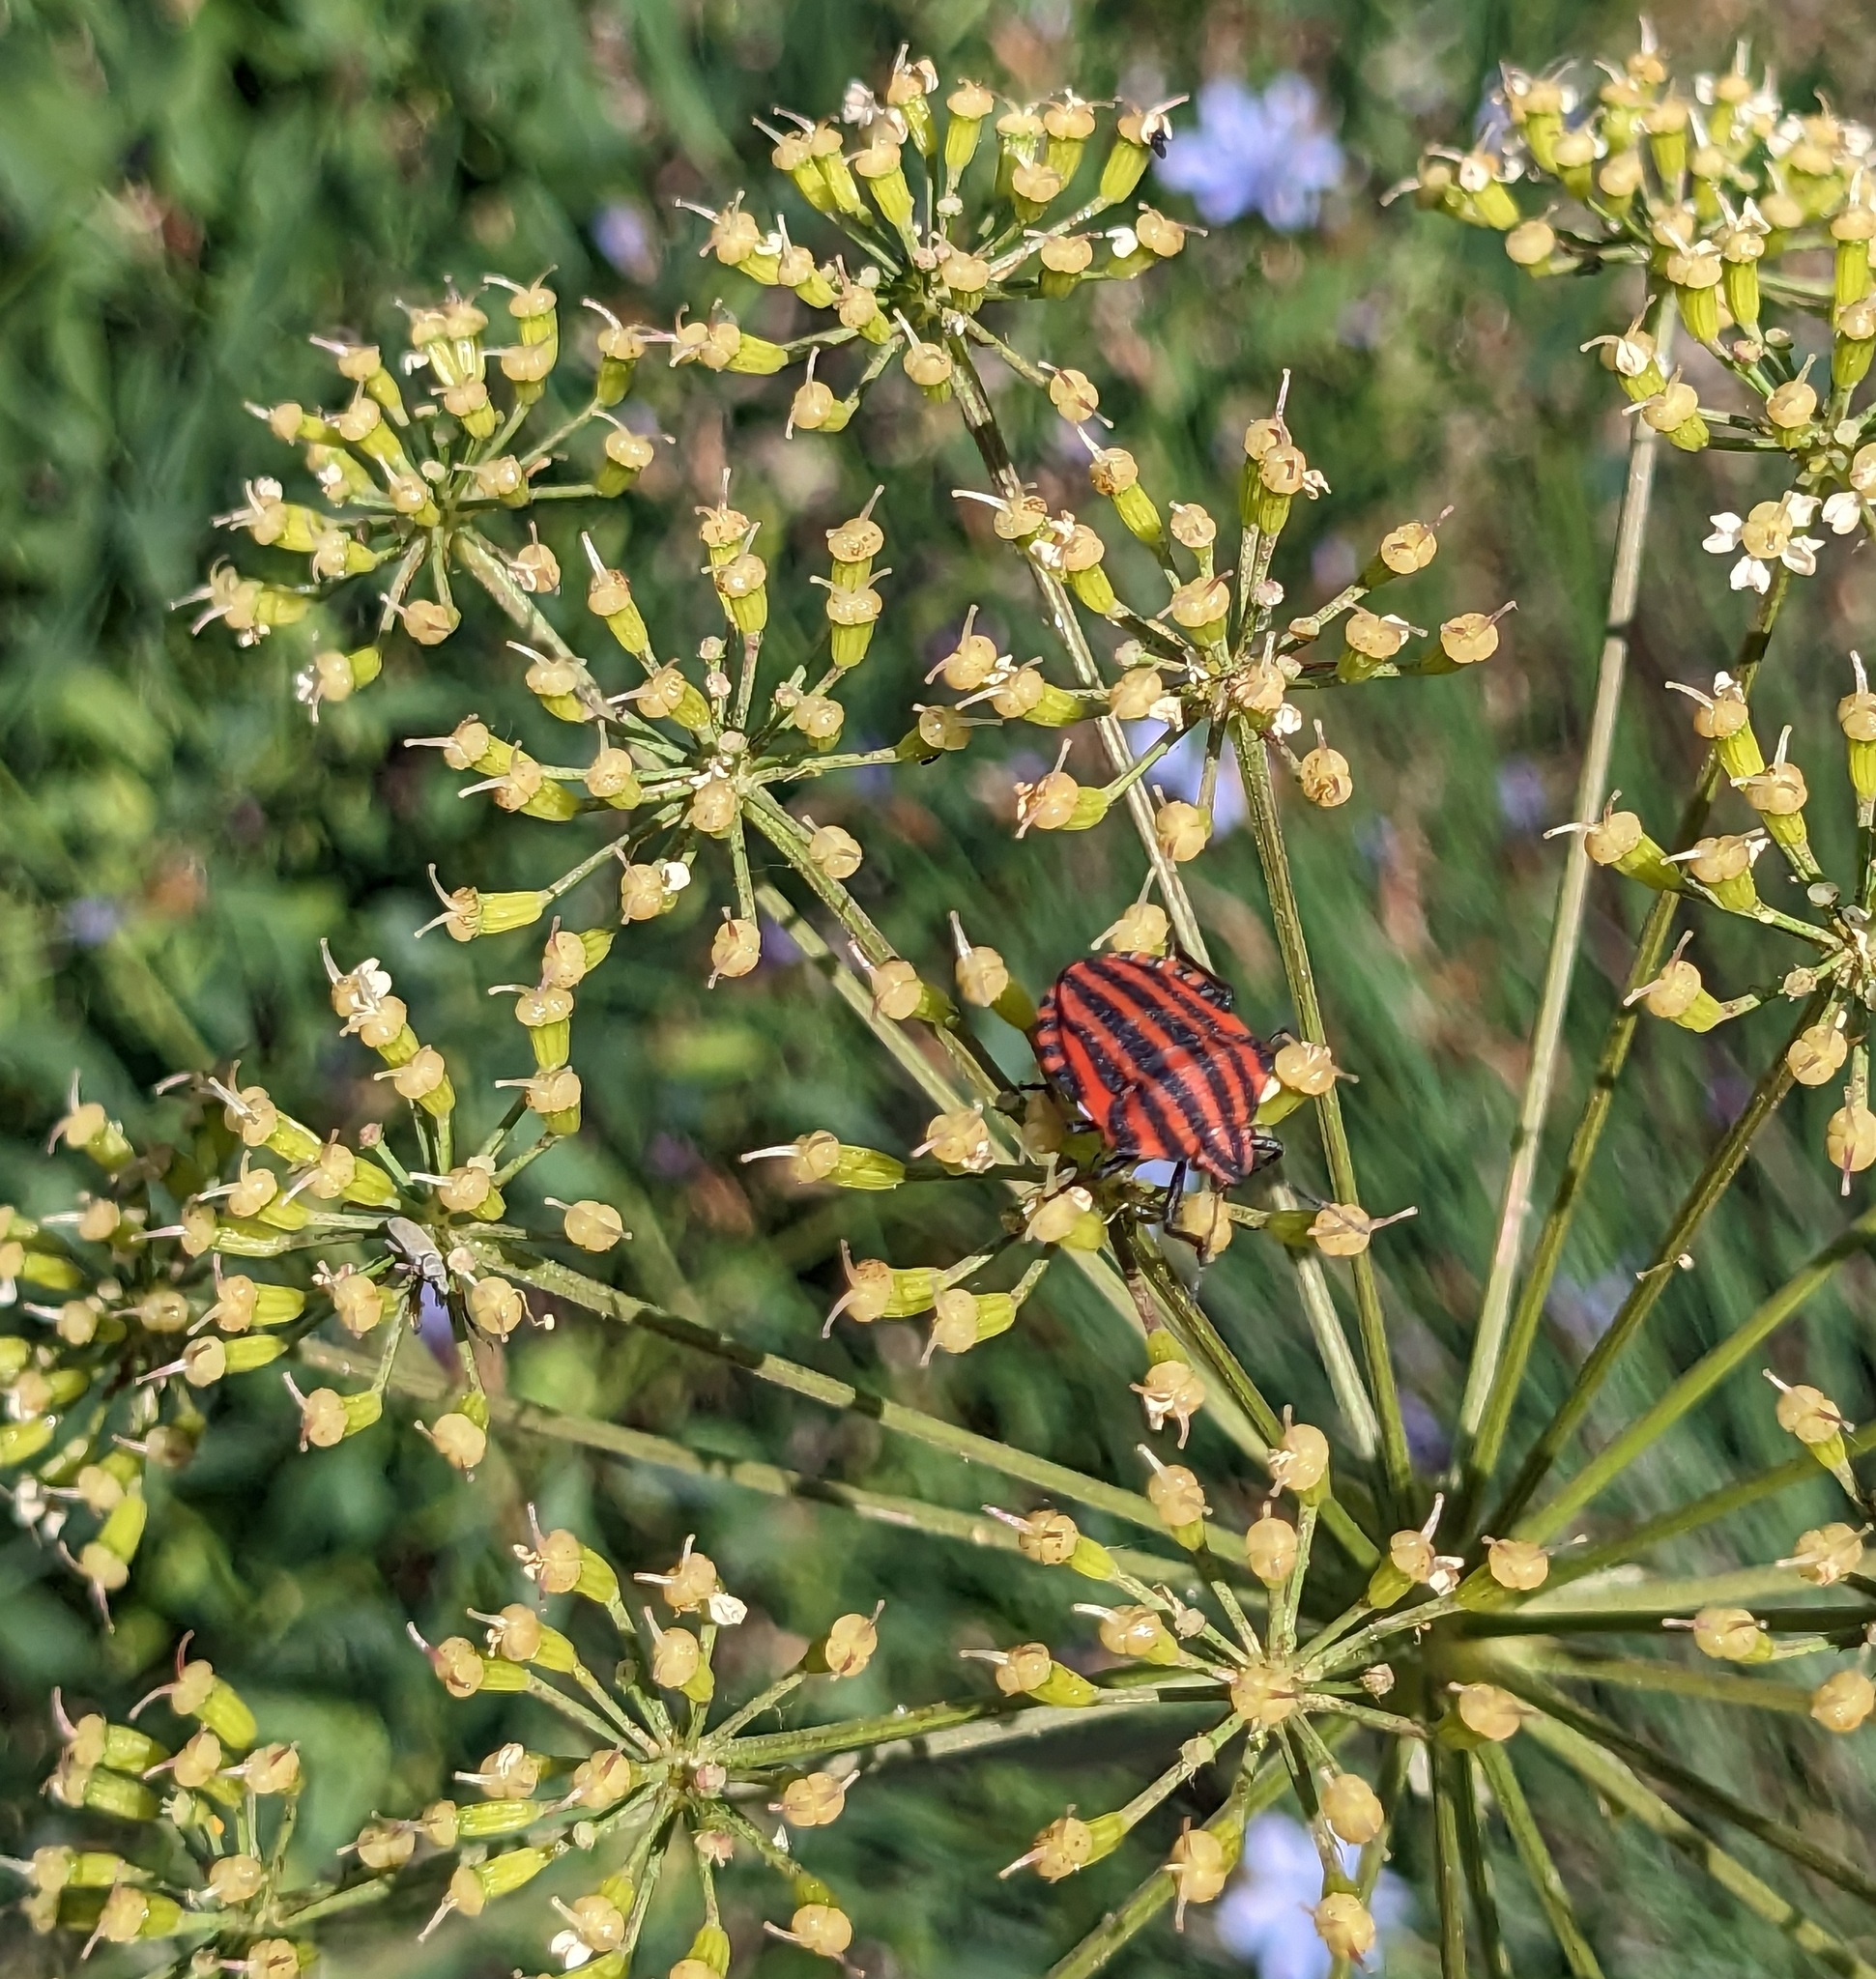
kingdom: Animalia
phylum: Arthropoda
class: Insecta
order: Hemiptera
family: Pentatomidae
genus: Graphosoma
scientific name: Graphosoma italicum
